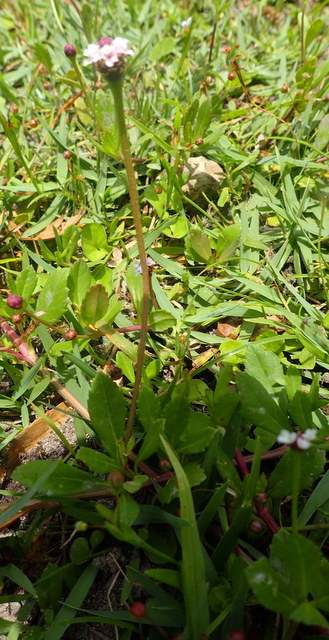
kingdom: Plantae
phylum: Tracheophyta
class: Magnoliopsida
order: Lamiales
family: Verbenaceae
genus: Phyla
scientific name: Phyla nodiflora
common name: Frogfruit
